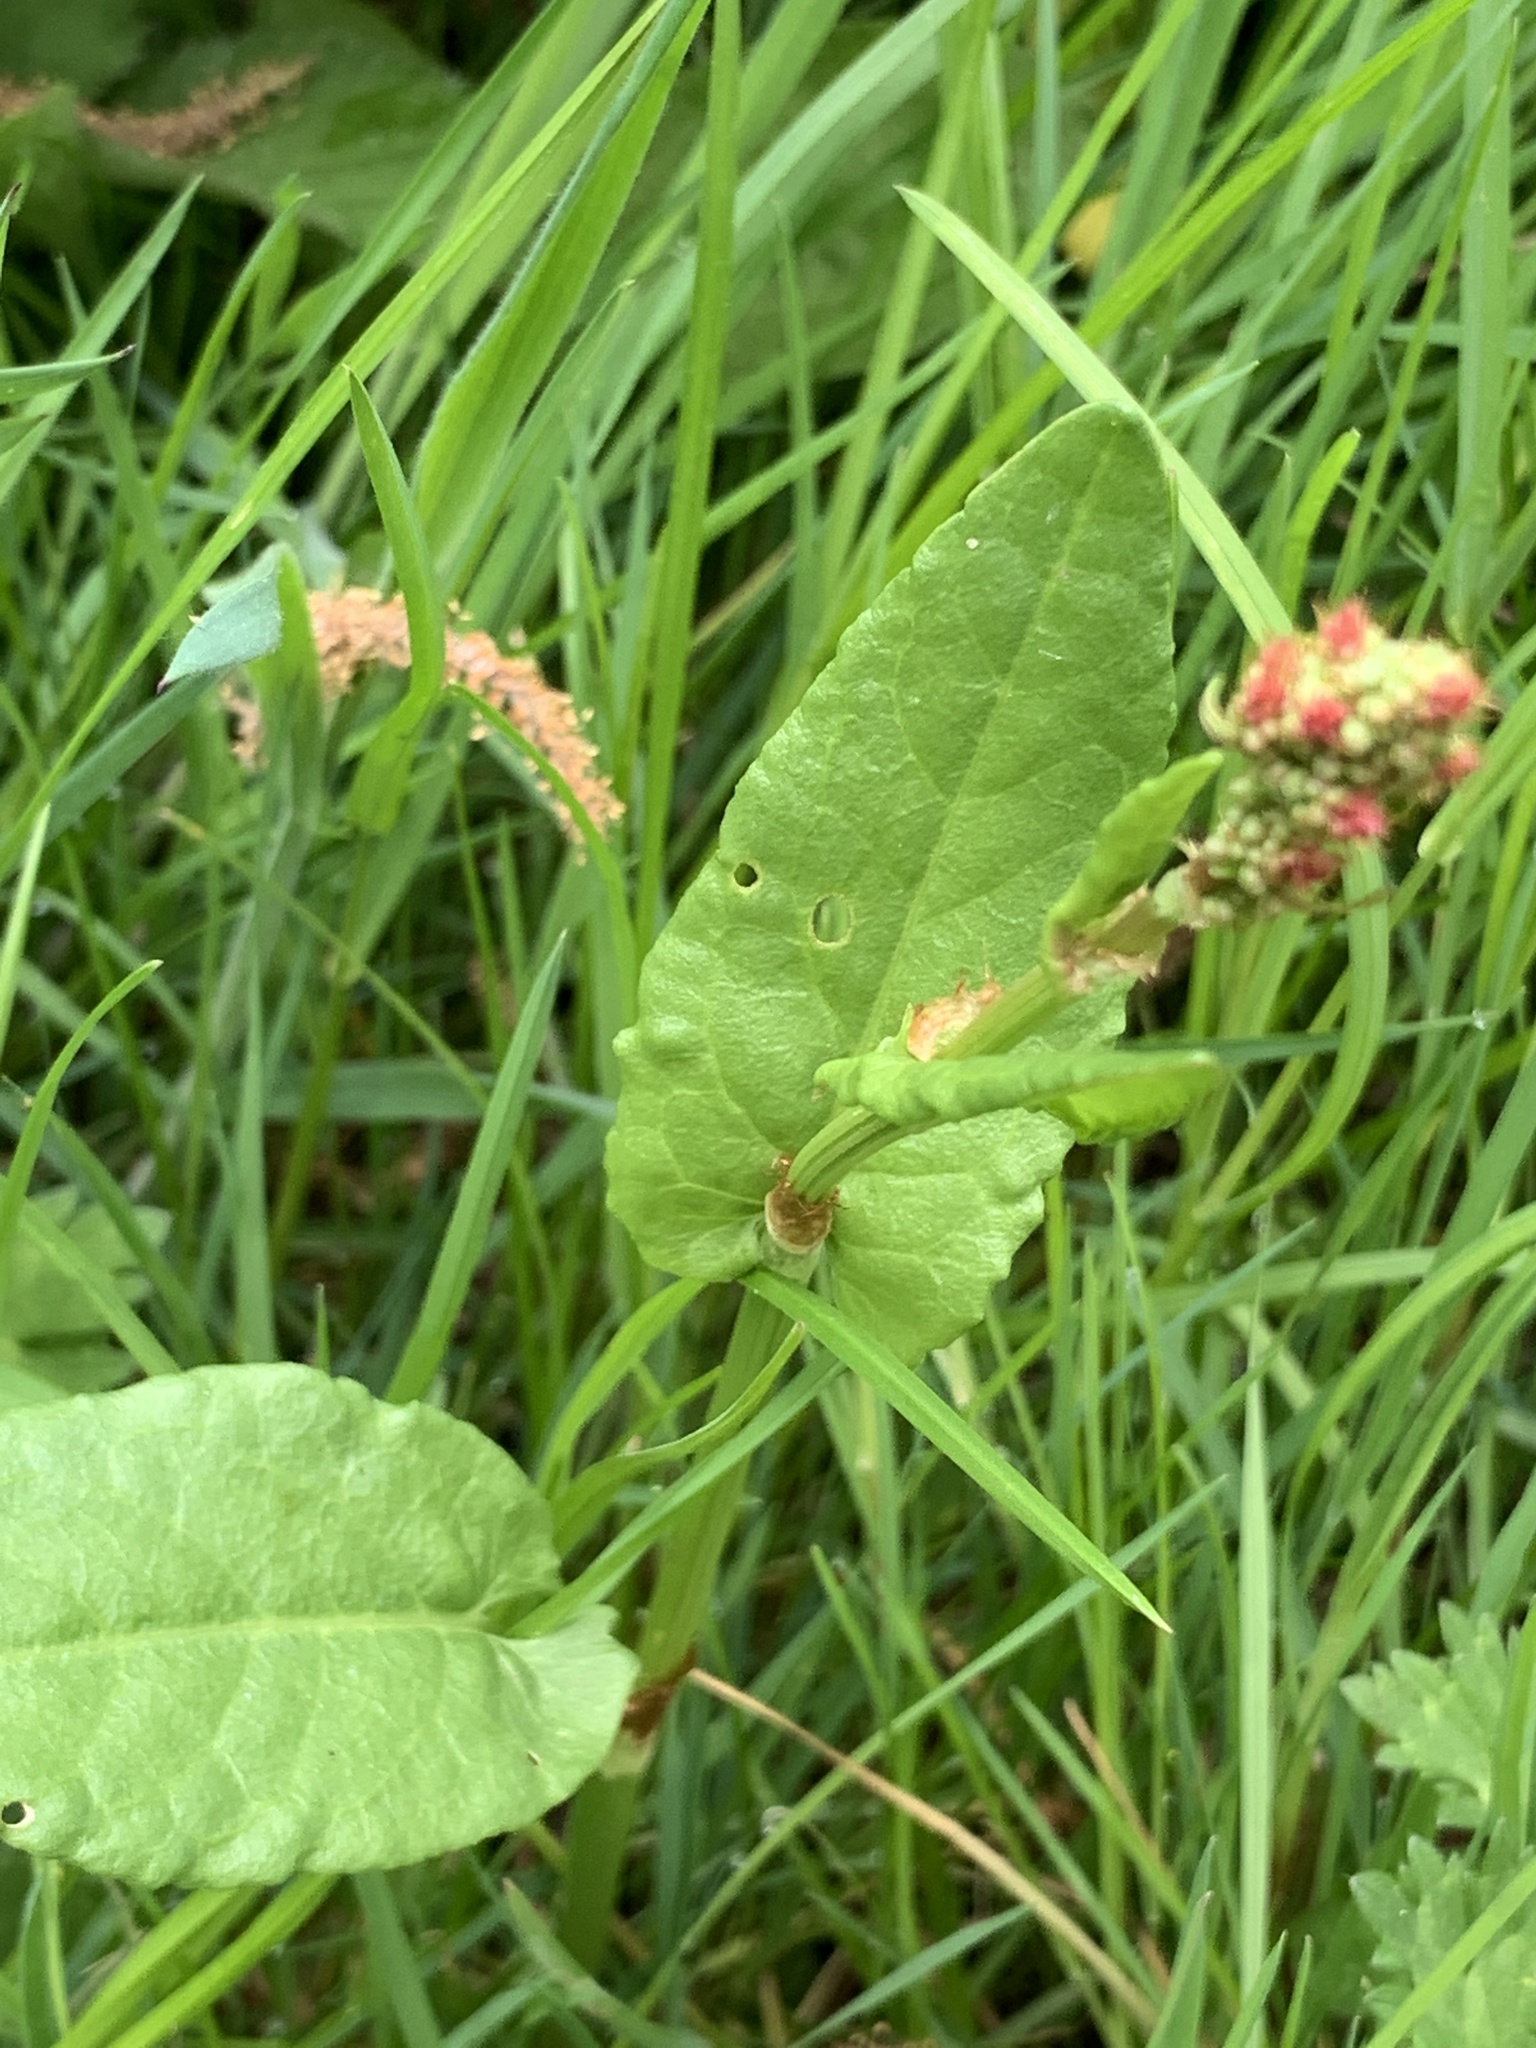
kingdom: Plantae
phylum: Tracheophyta
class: Magnoliopsida
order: Caryophyllales
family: Polygonaceae
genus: Rumex
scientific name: Rumex acetosa
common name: Garden sorrel
